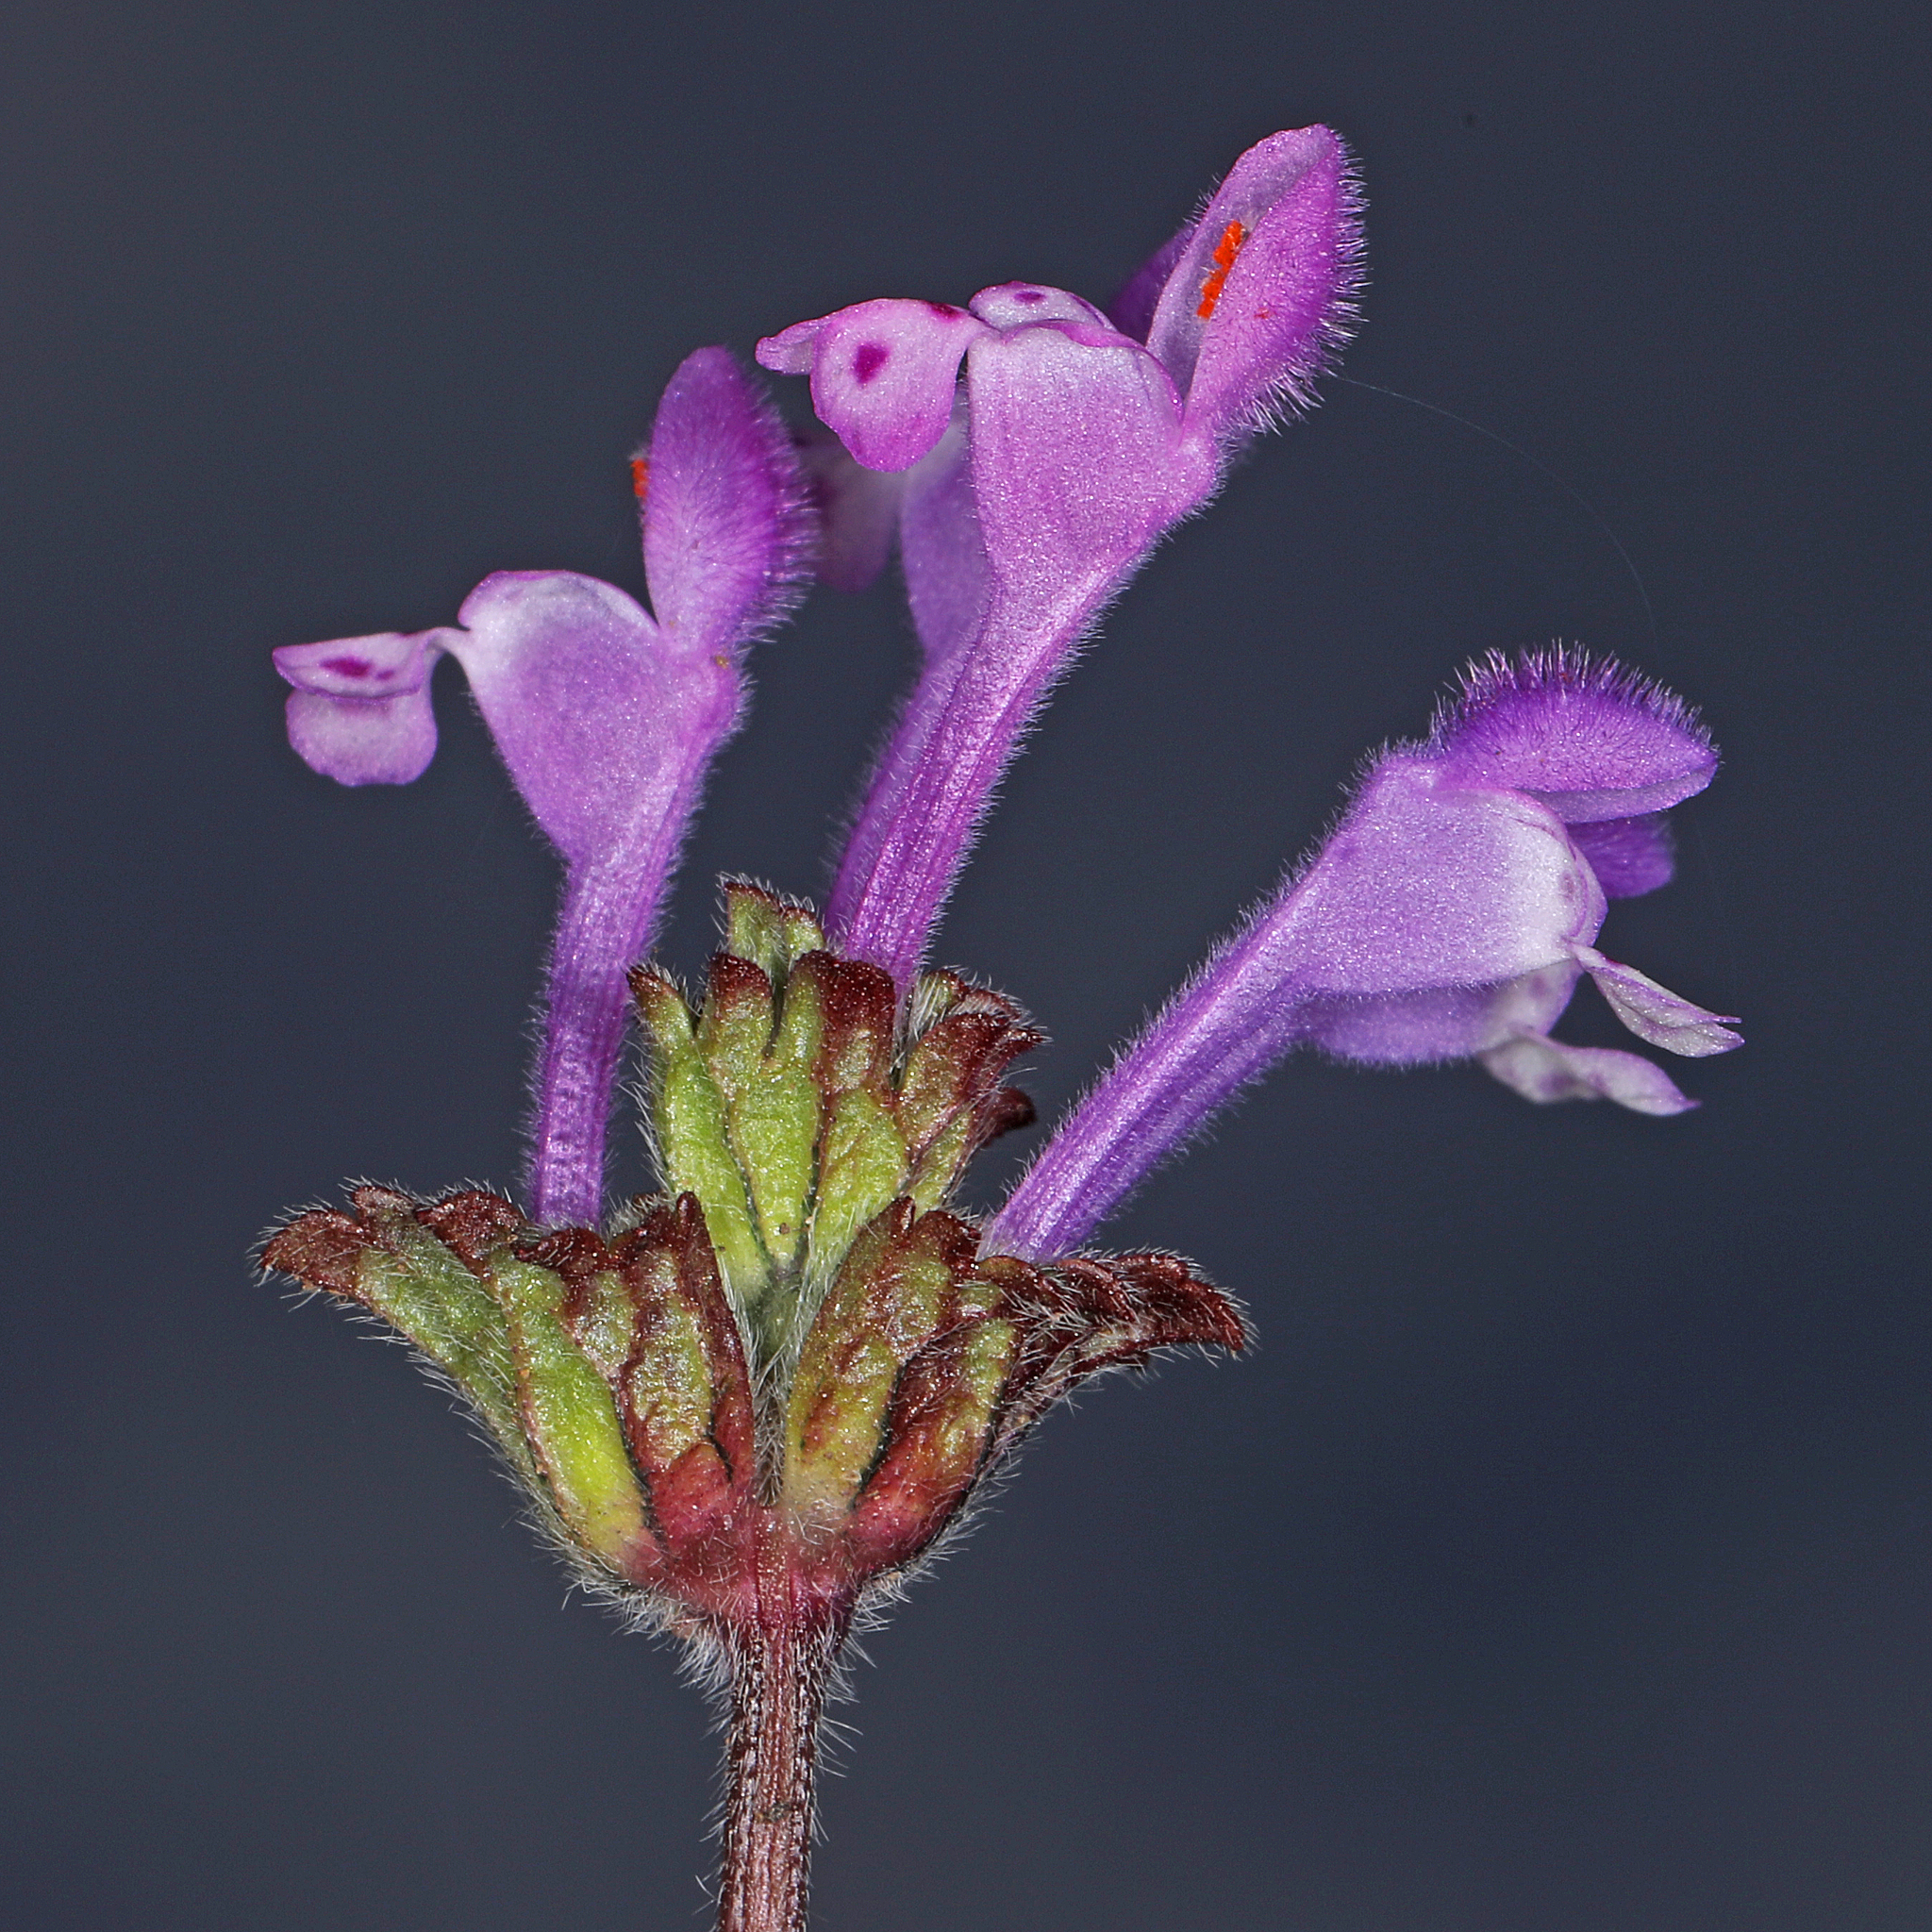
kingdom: Plantae
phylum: Tracheophyta
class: Magnoliopsida
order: Lamiales
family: Lamiaceae
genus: Lamium
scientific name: Lamium amplexicaule
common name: Henbit dead-nettle
